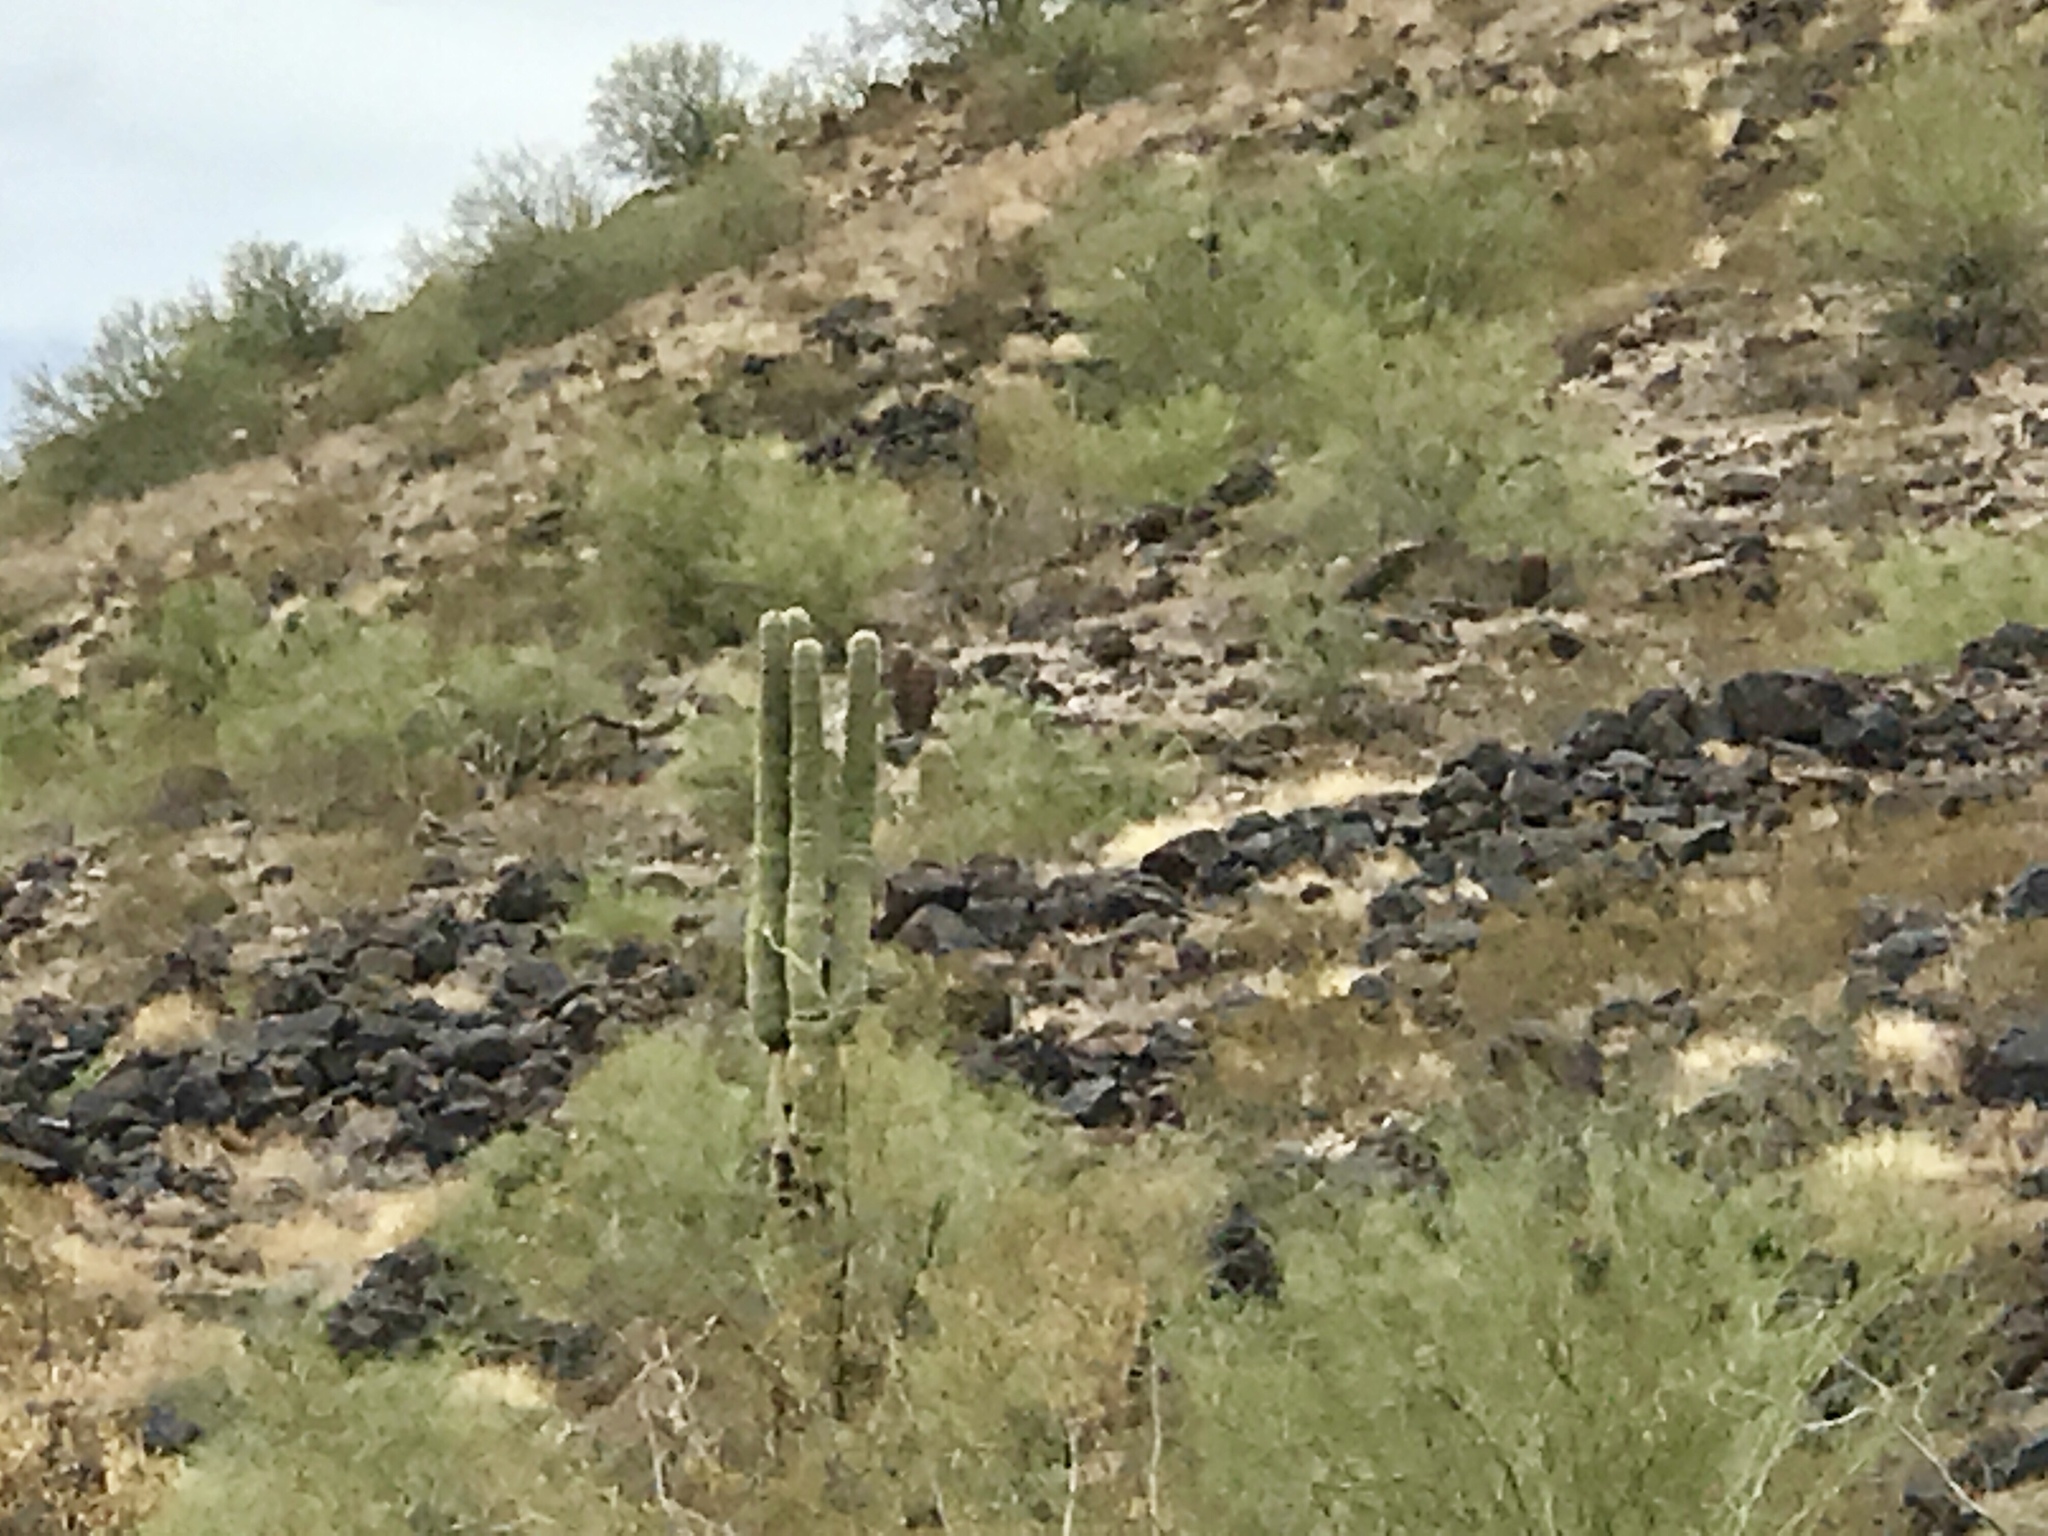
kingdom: Plantae
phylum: Tracheophyta
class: Magnoliopsida
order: Caryophyllales
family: Cactaceae
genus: Carnegiea
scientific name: Carnegiea gigantea
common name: Saguaro
